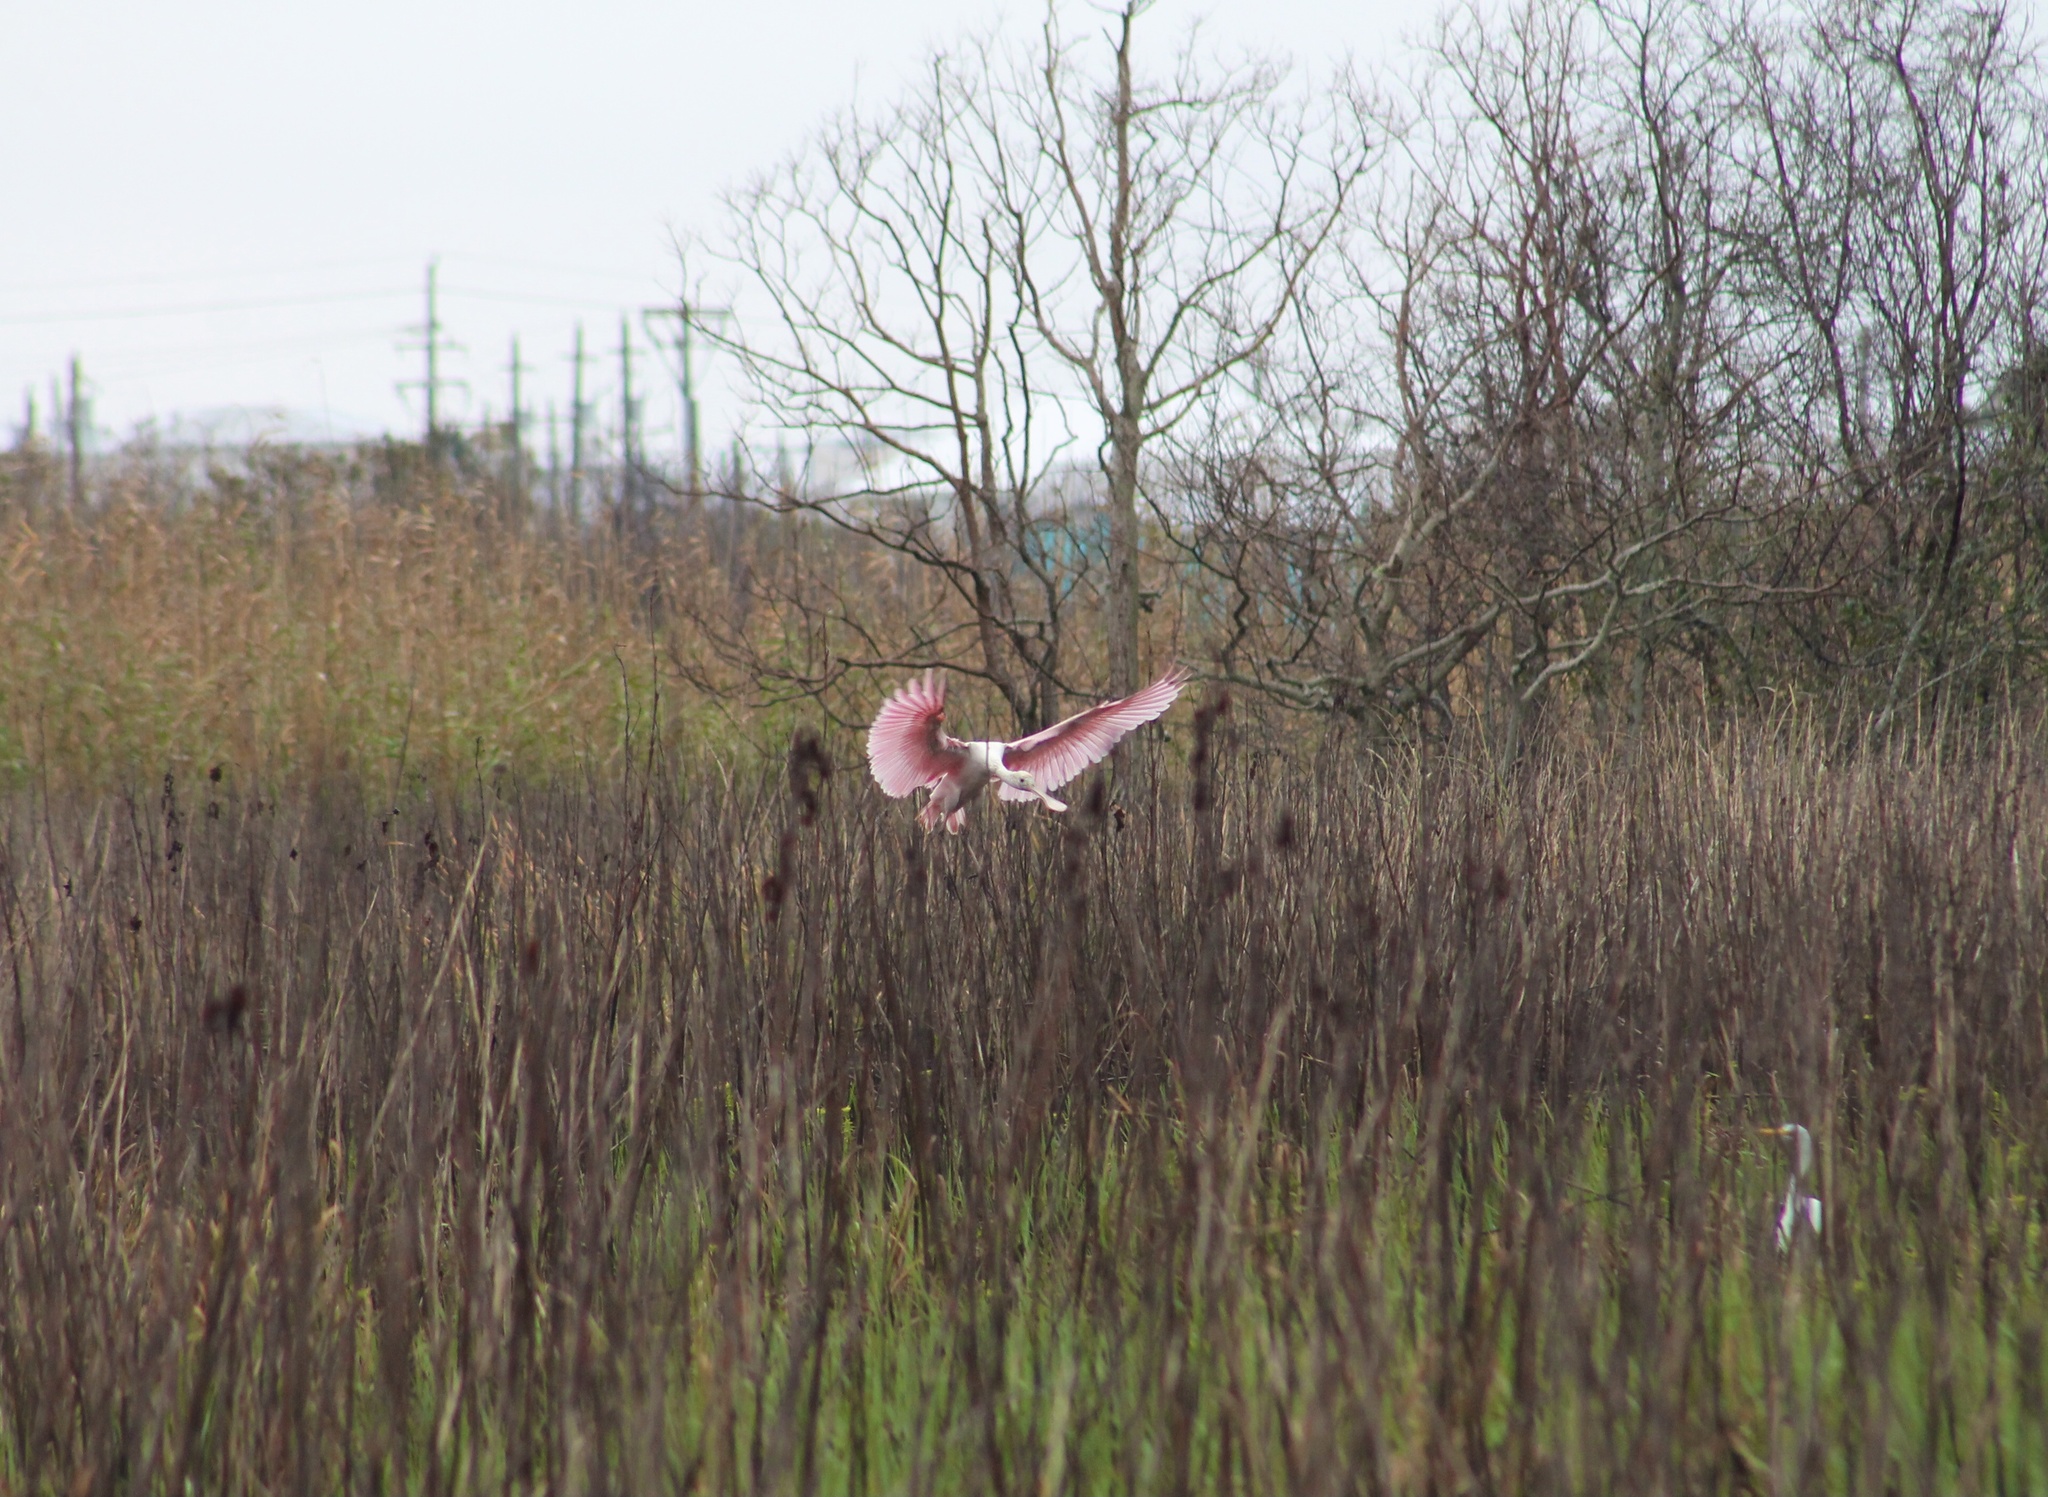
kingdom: Animalia
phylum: Chordata
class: Aves
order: Pelecaniformes
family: Threskiornithidae
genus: Platalea
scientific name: Platalea ajaja
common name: Roseate spoonbill
